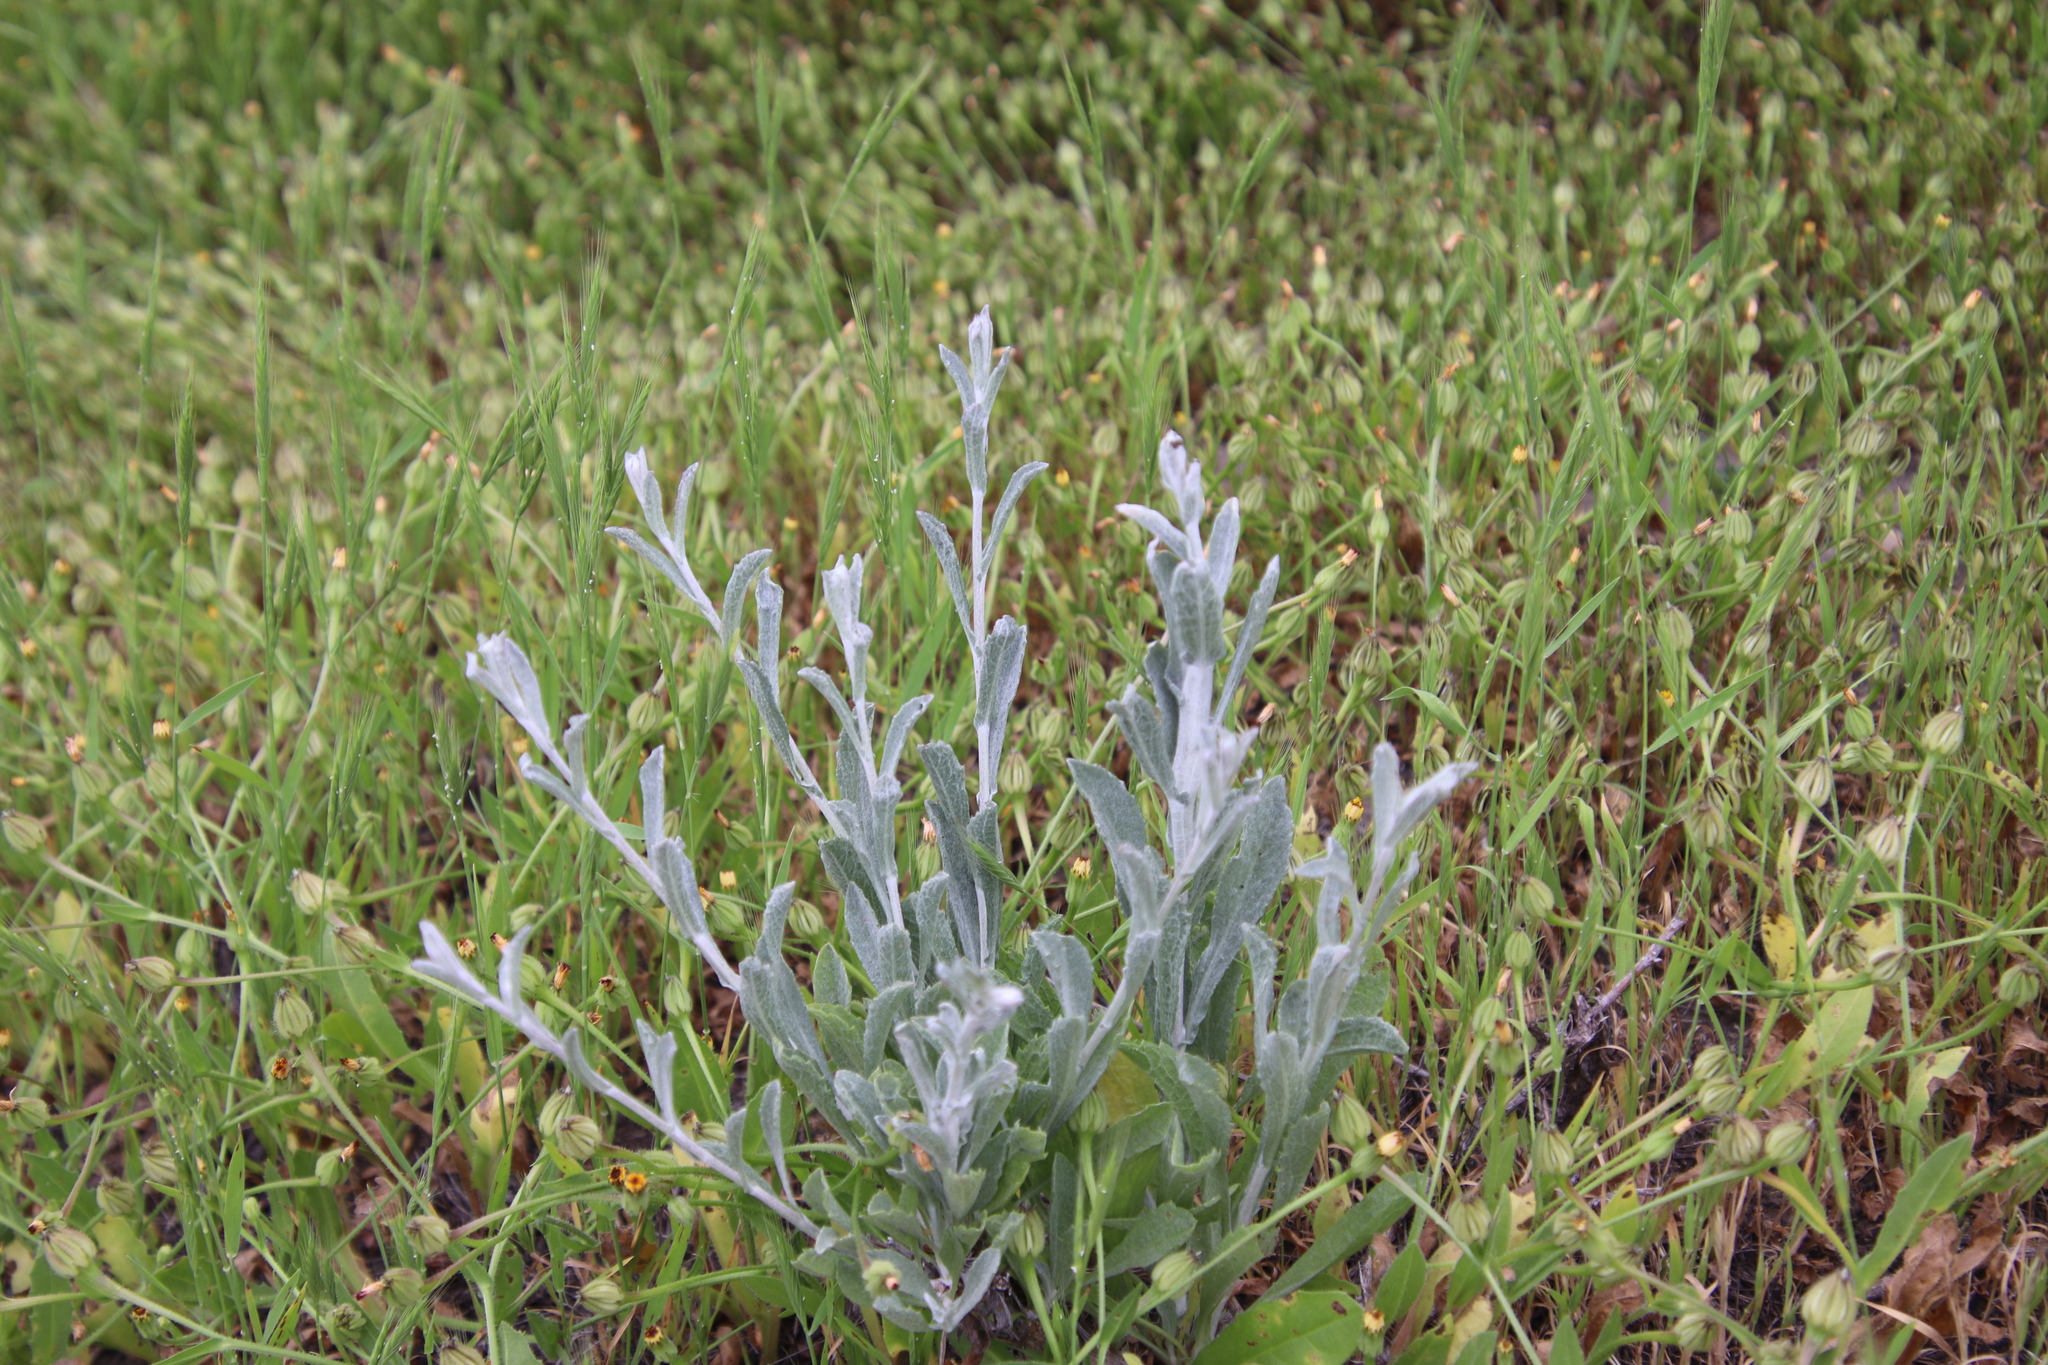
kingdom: Plantae
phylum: Tracheophyta
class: Magnoliopsida
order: Asterales
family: Asteraceae
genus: Corethrogyne
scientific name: Corethrogyne filaginifolia
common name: Sand-aster
